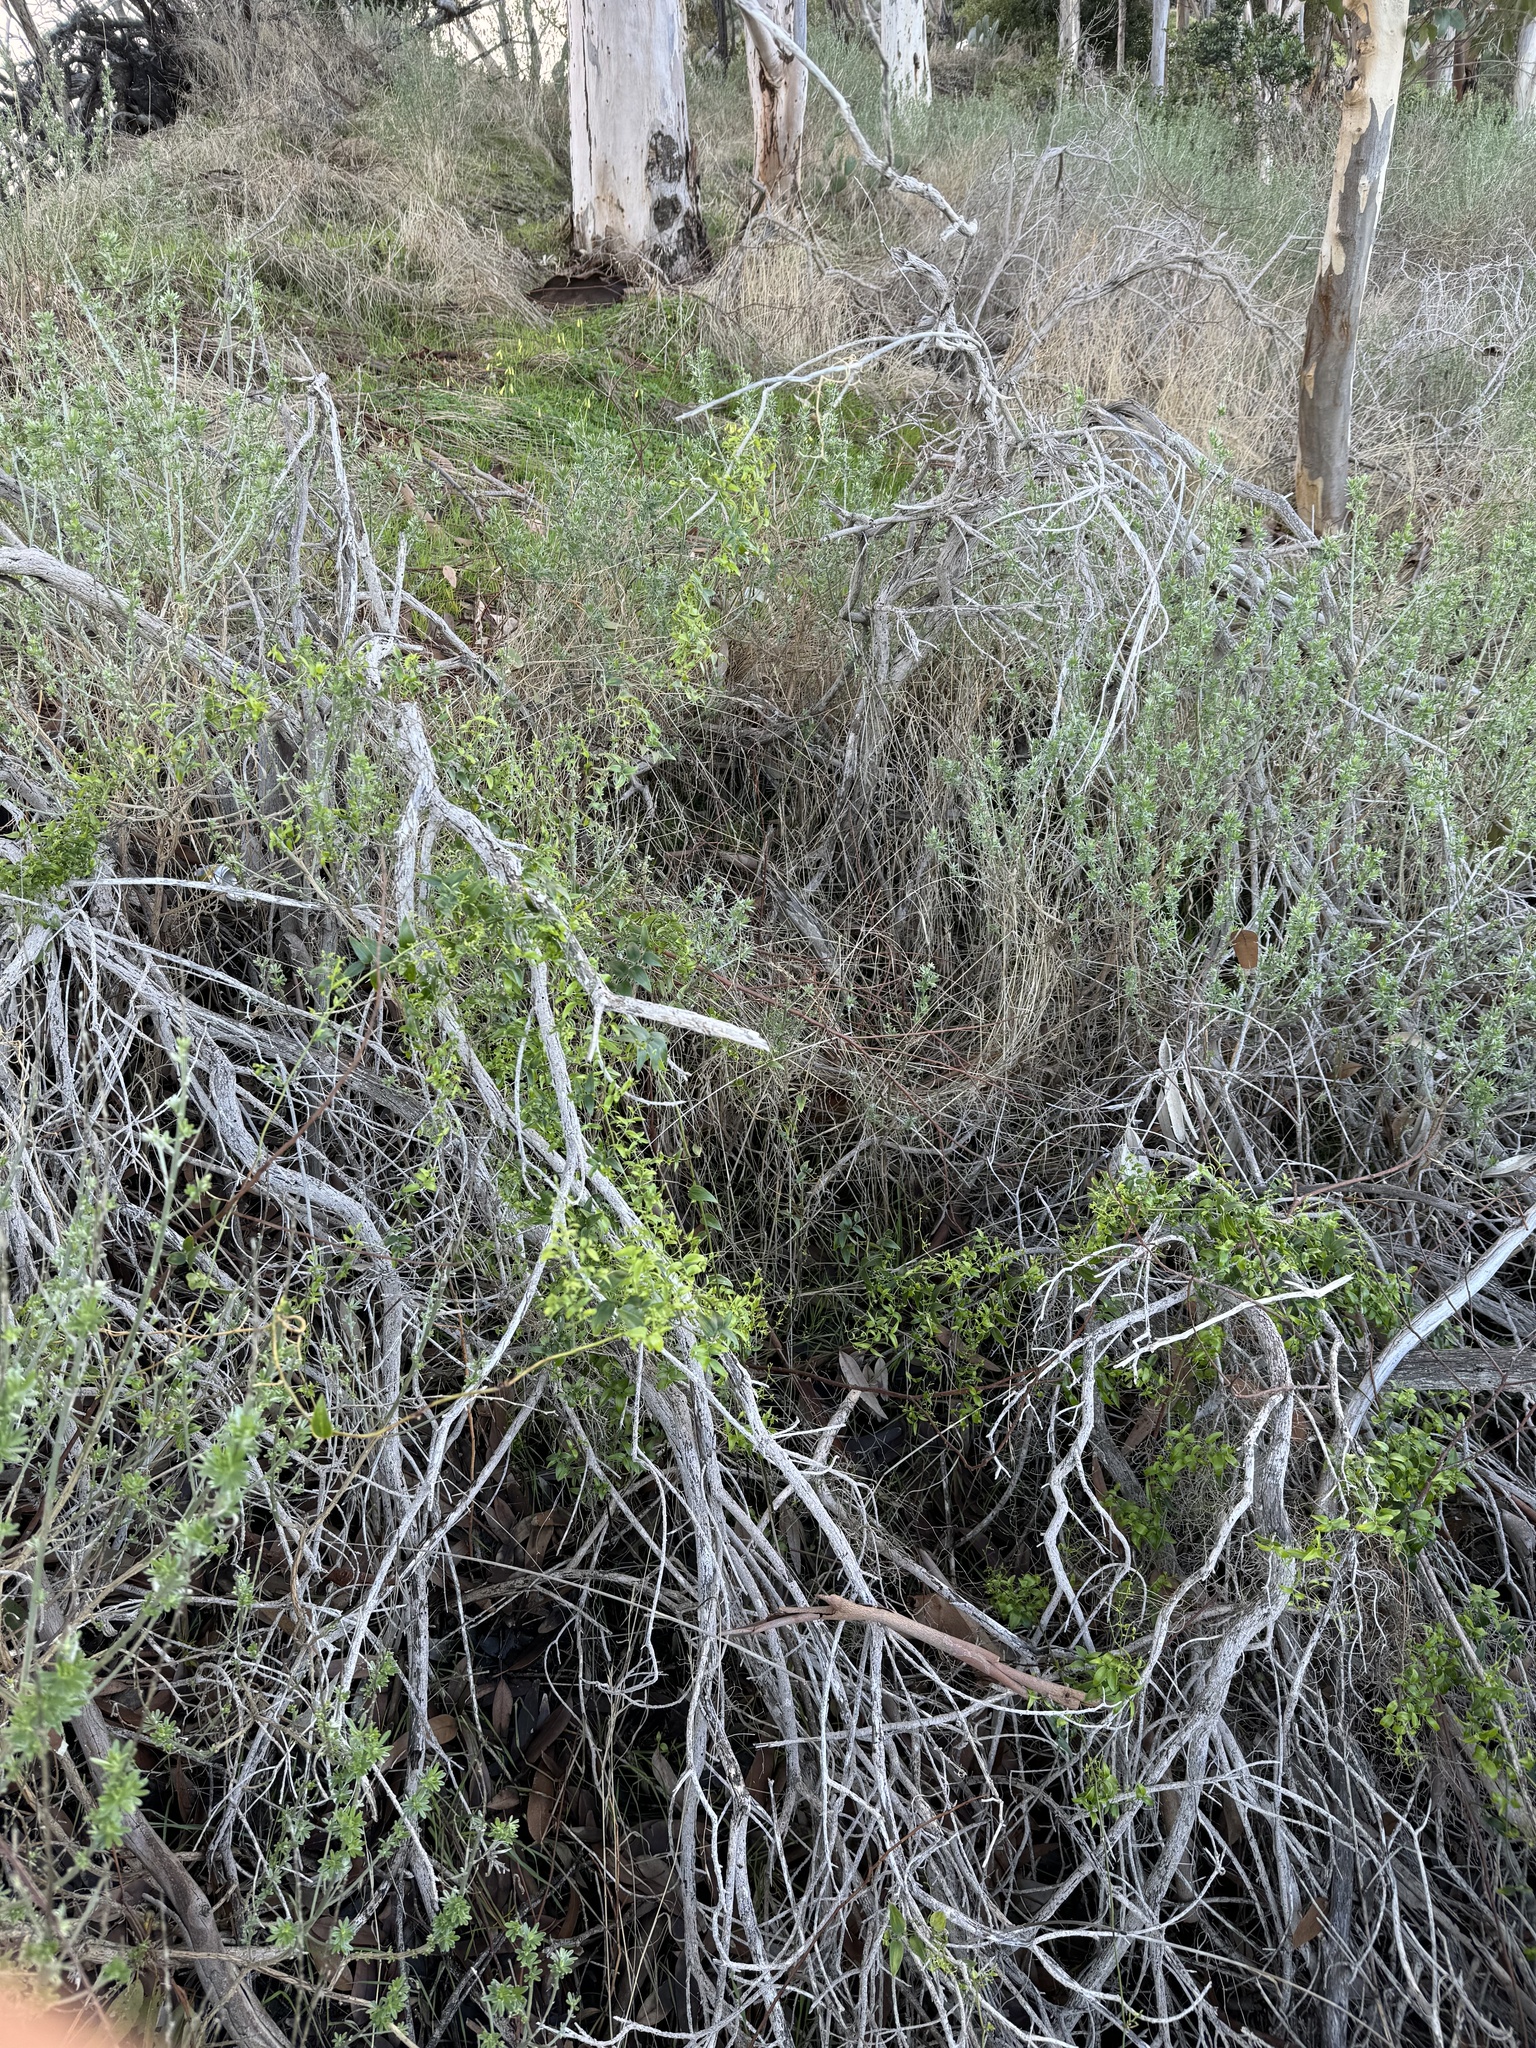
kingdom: Plantae
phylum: Tracheophyta
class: Liliopsida
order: Asparagales
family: Asparagaceae
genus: Asparagus
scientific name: Asparagus asparagoides
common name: African asparagus fern
